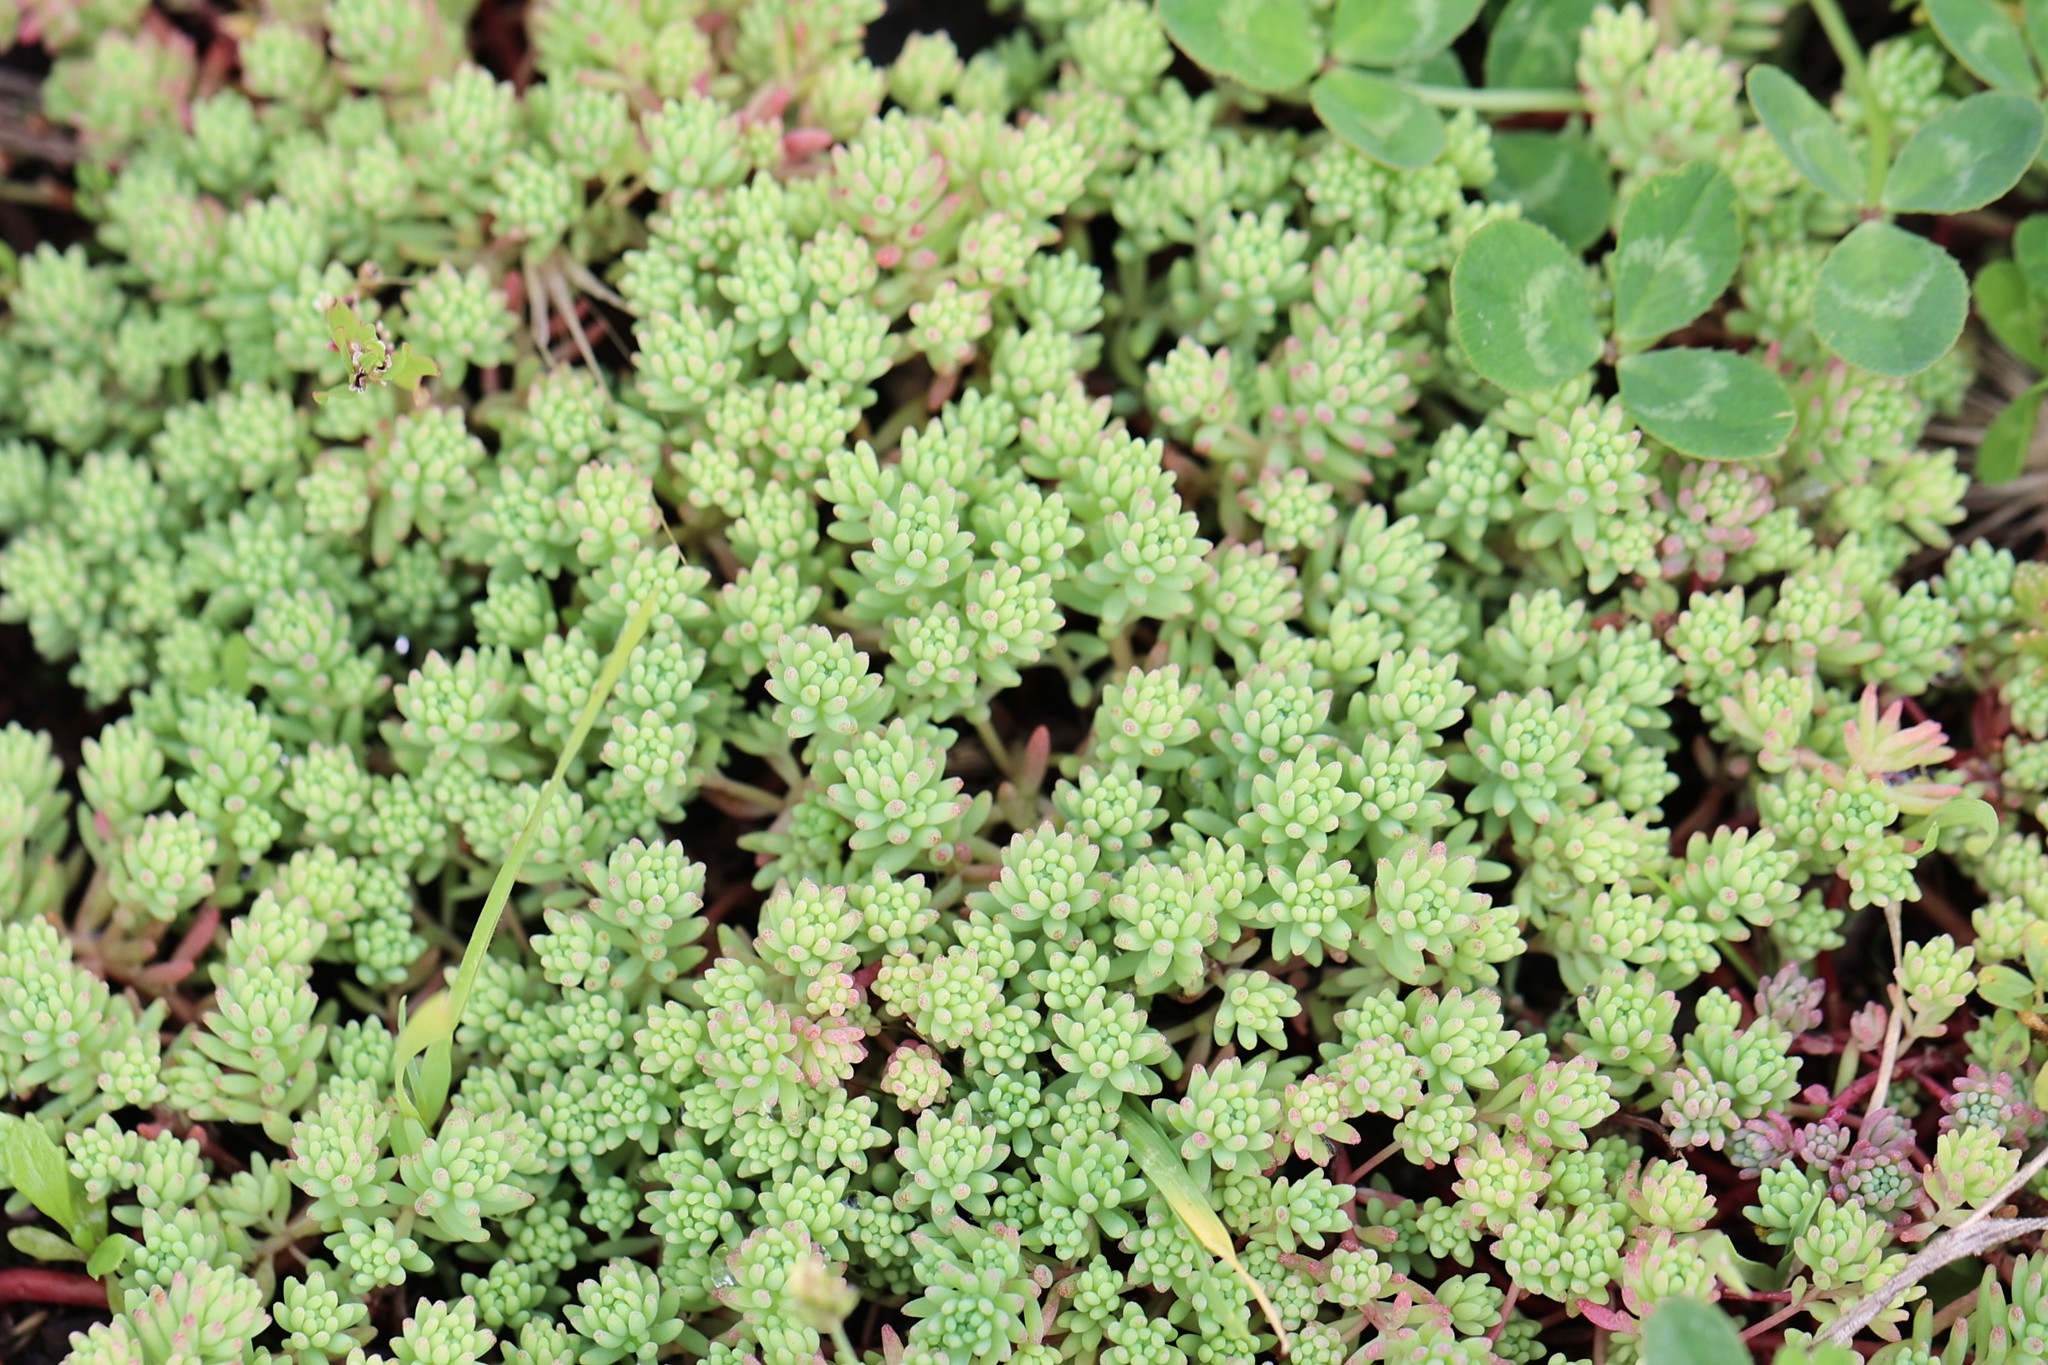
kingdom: Plantae
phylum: Tracheophyta
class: Magnoliopsida
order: Saxifragales
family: Crassulaceae
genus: Sedum
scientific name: Sedum pallidum
